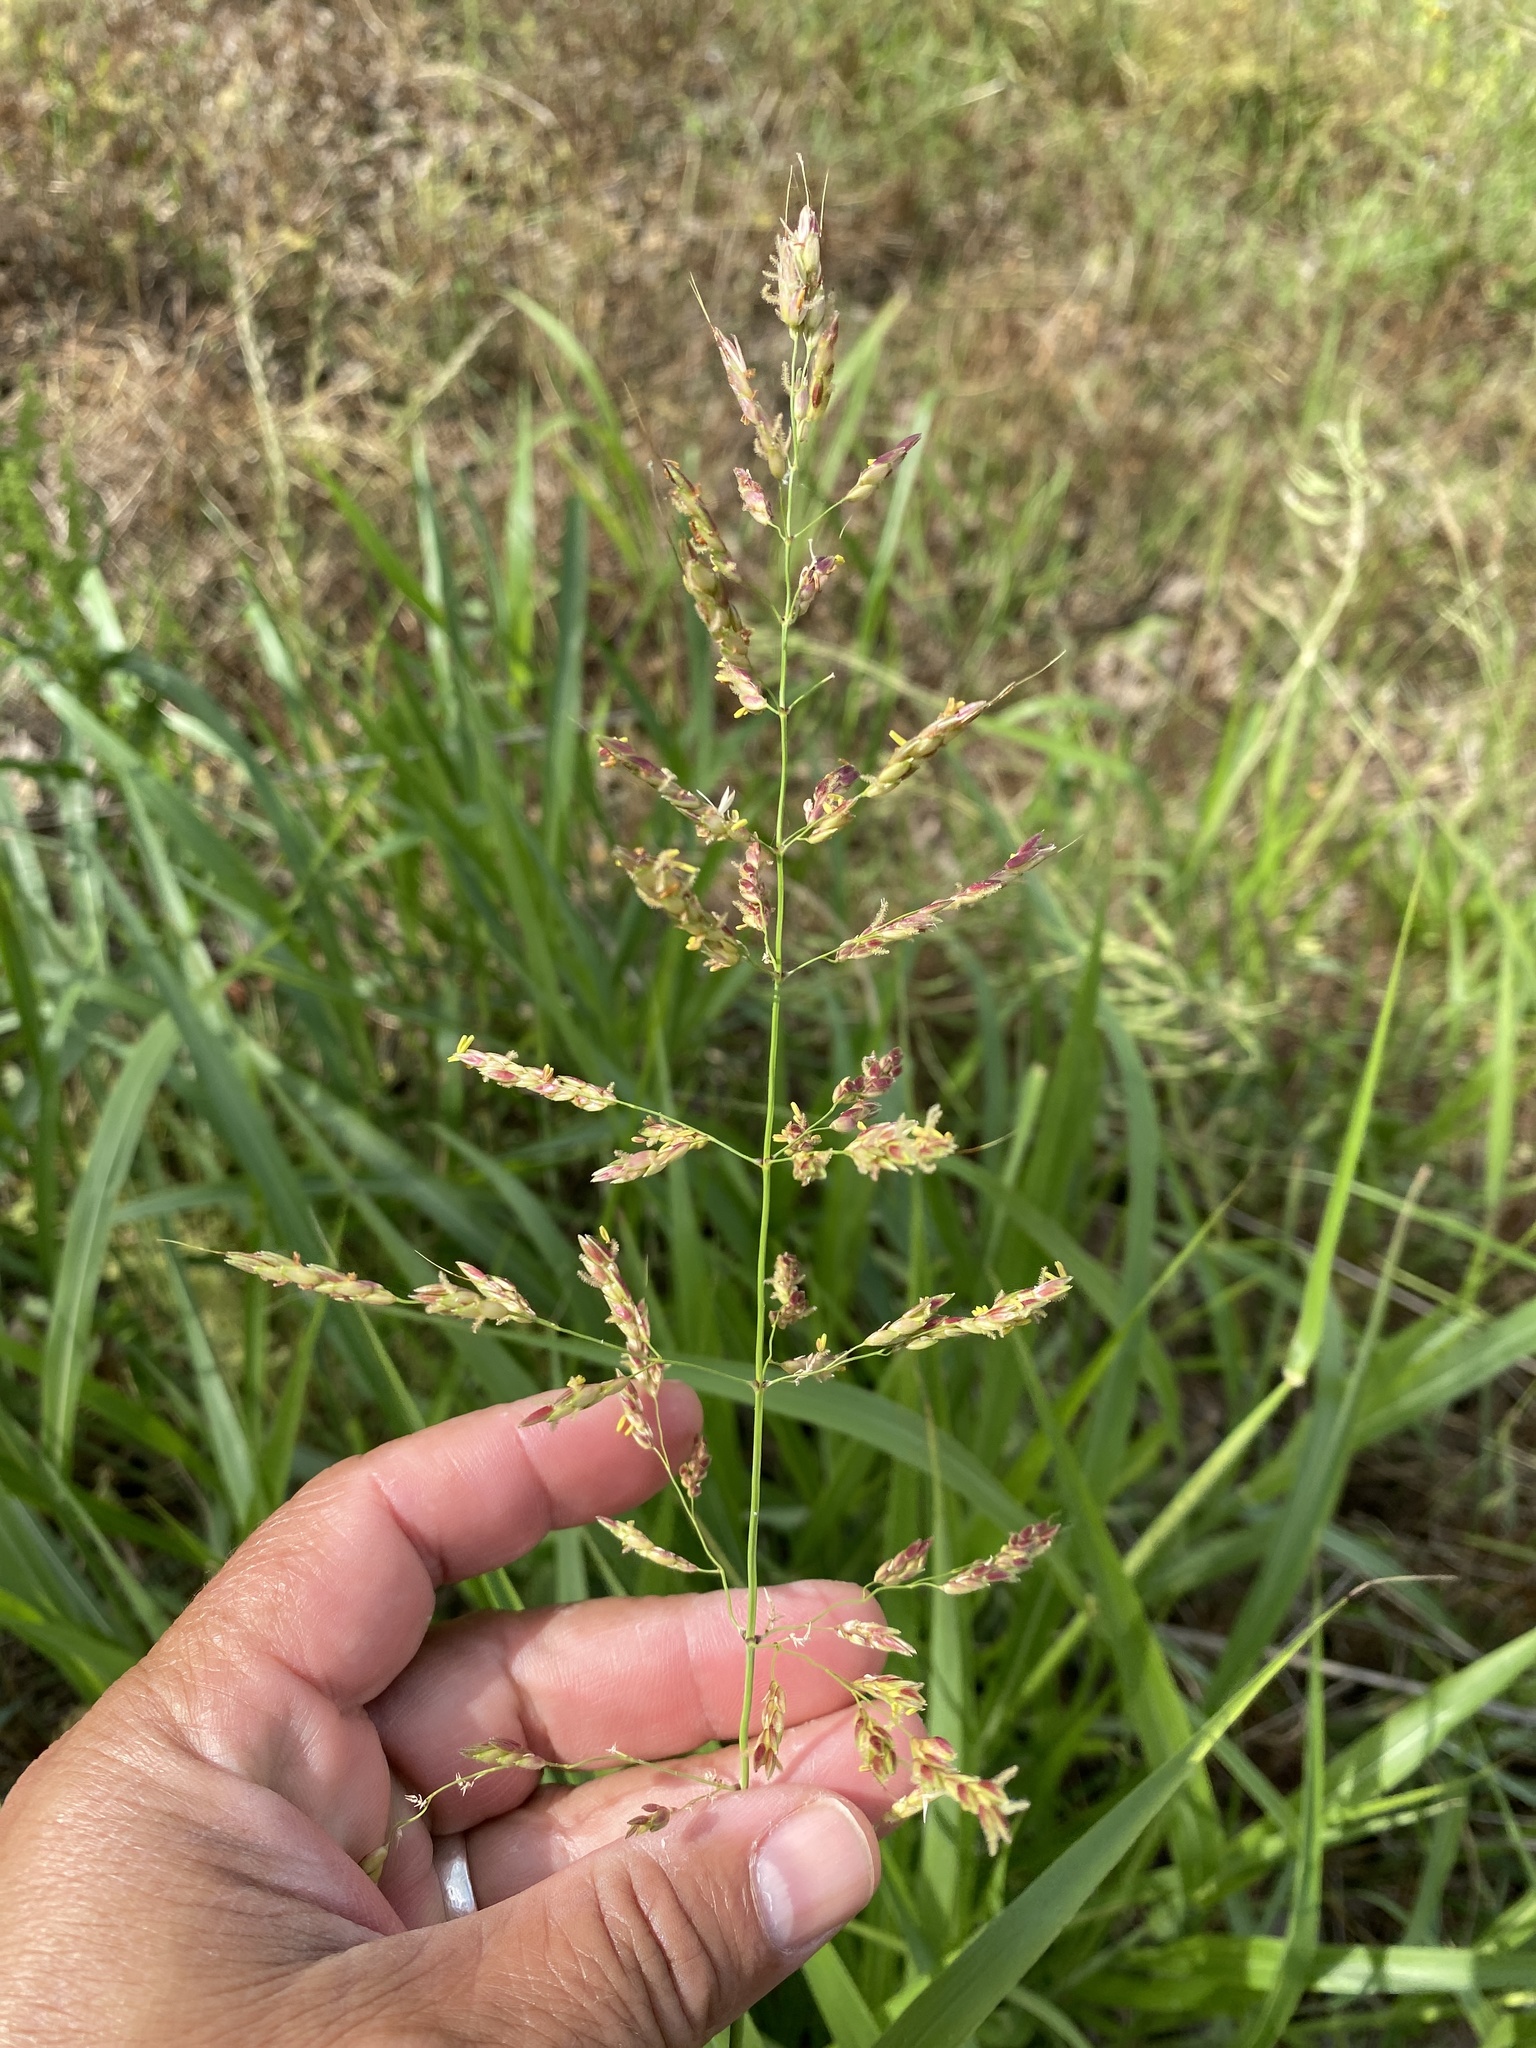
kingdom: Plantae
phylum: Tracheophyta
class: Liliopsida
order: Poales
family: Poaceae
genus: Sorghum
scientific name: Sorghum halepense
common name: Johnson-grass
